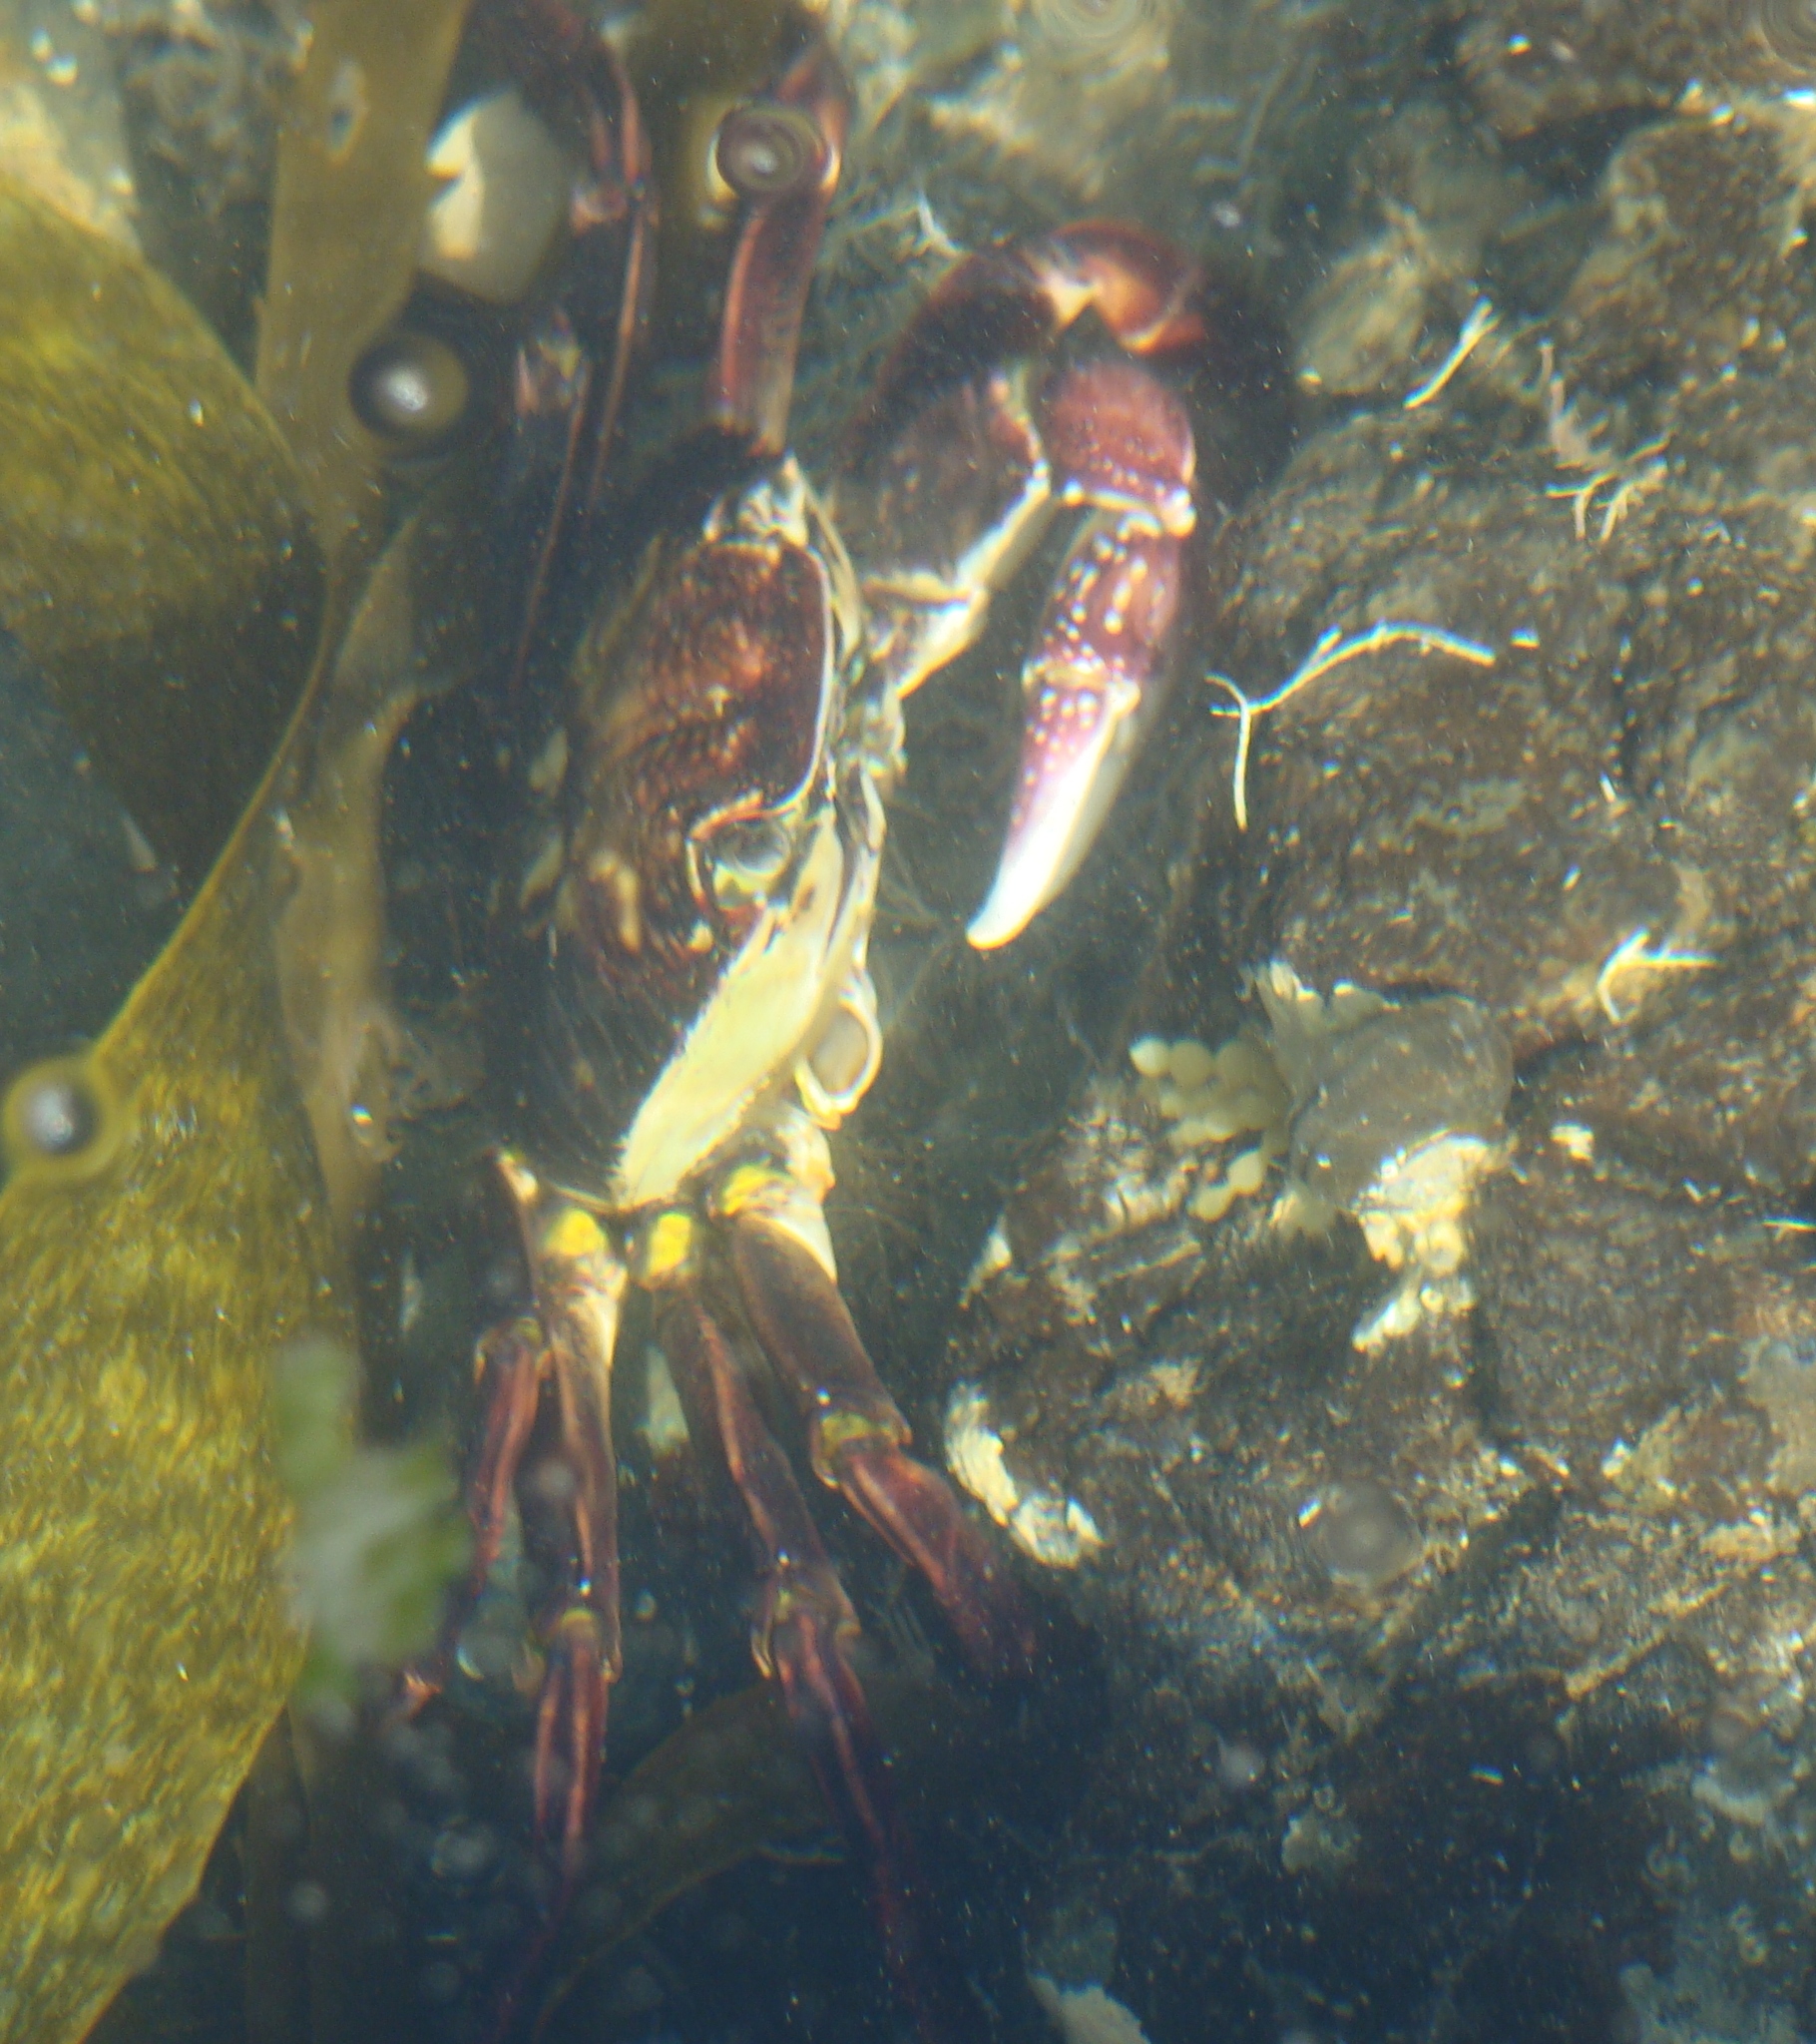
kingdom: Animalia
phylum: Arthropoda
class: Malacostraca
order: Decapoda
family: Grapsidae
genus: Leptograpsus
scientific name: Leptograpsus variegatus
